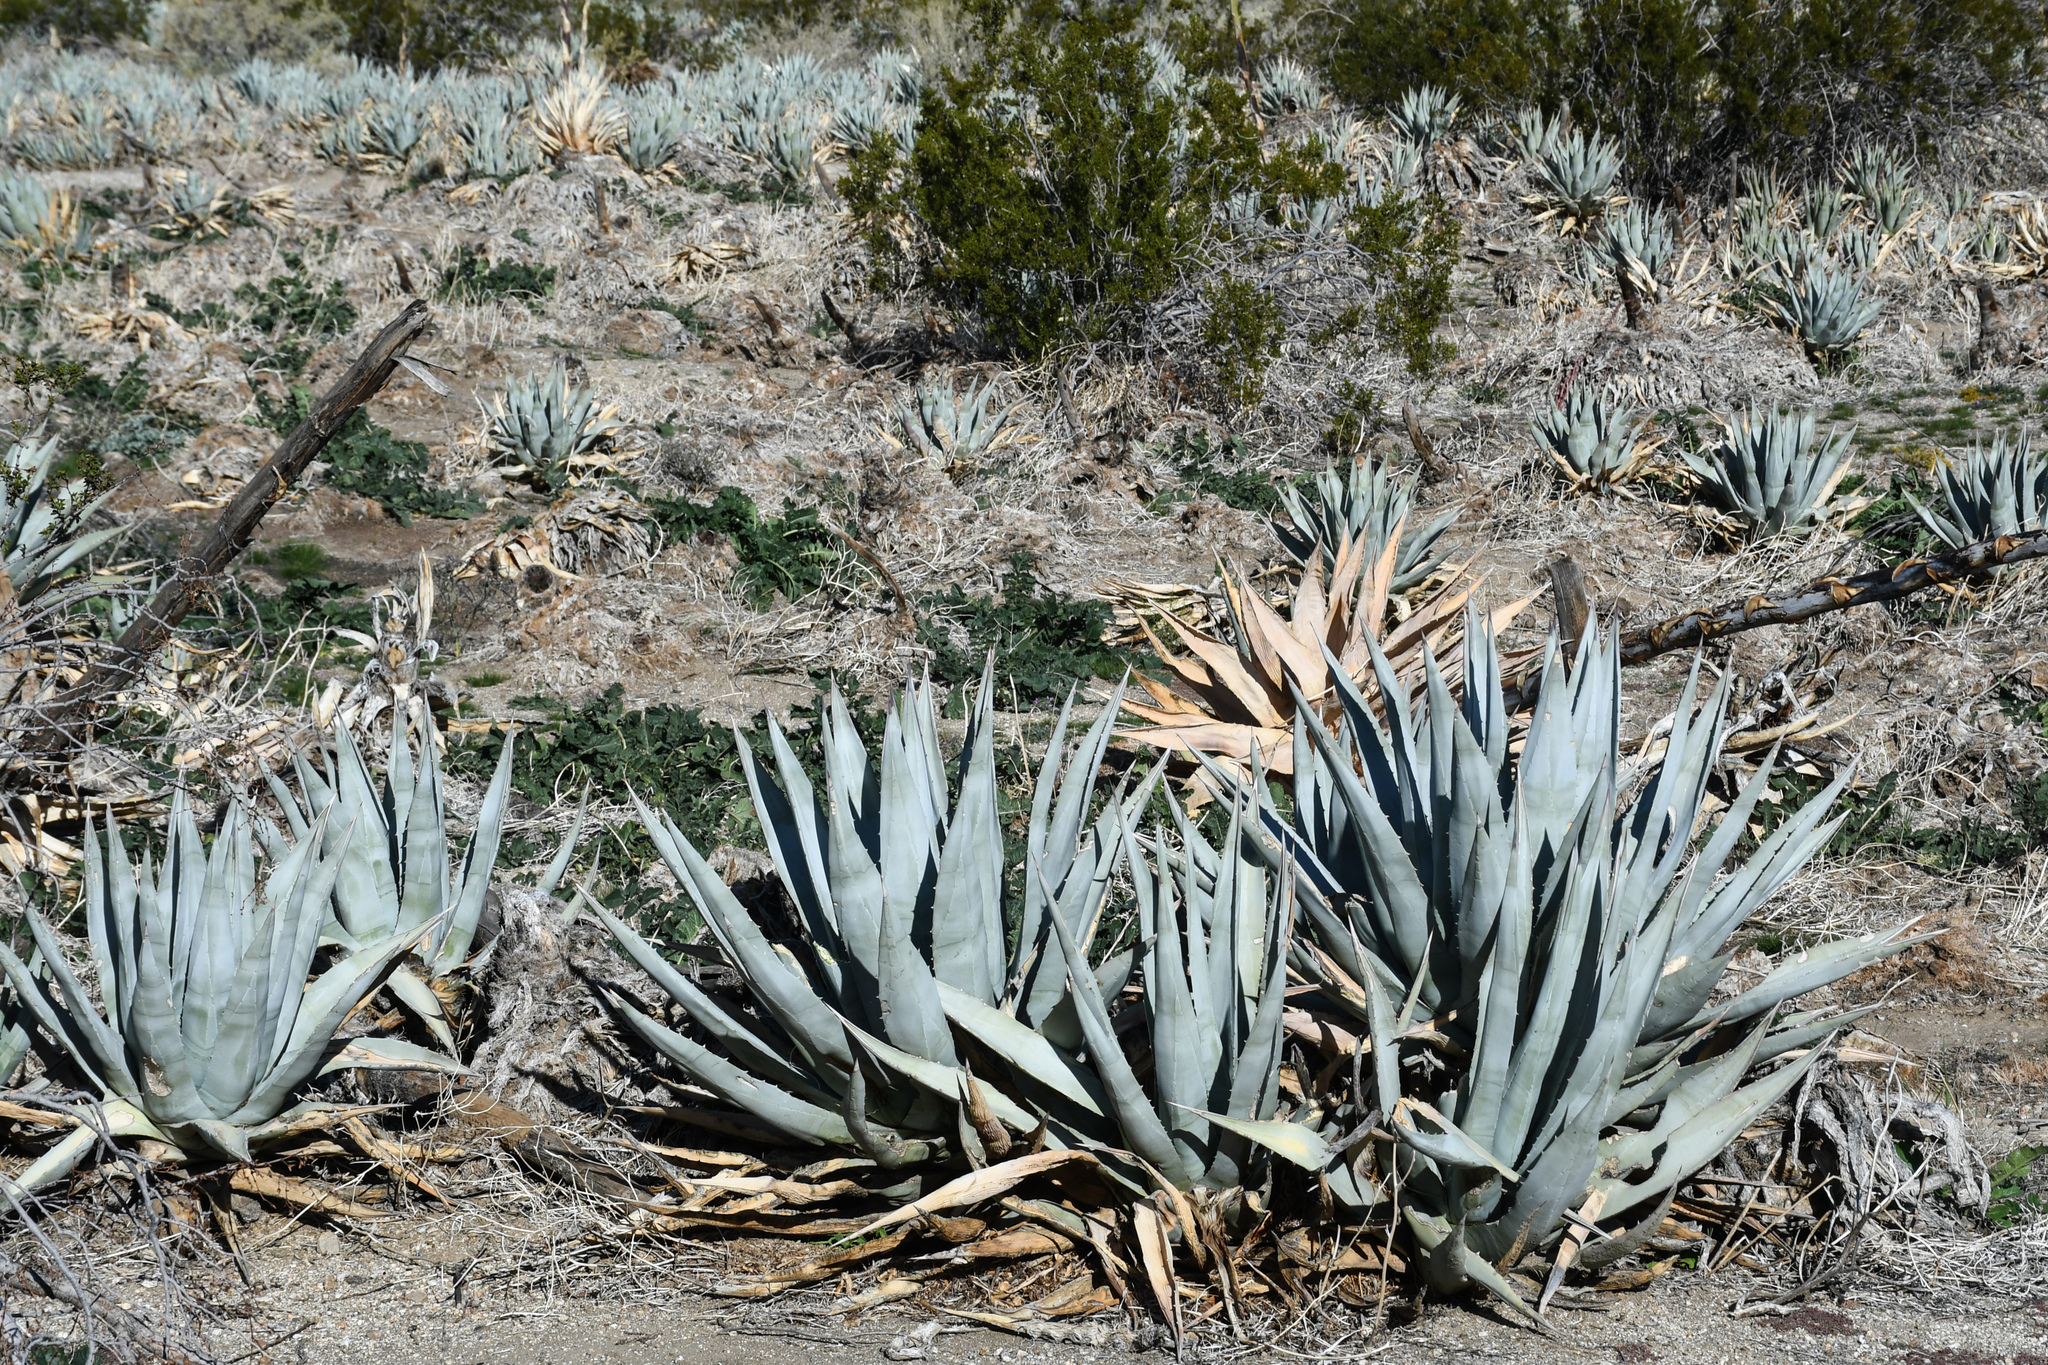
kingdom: Plantae
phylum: Tracheophyta
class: Liliopsida
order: Asparagales
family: Asparagaceae
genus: Agave
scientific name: Agave deserti
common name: Desert agave
